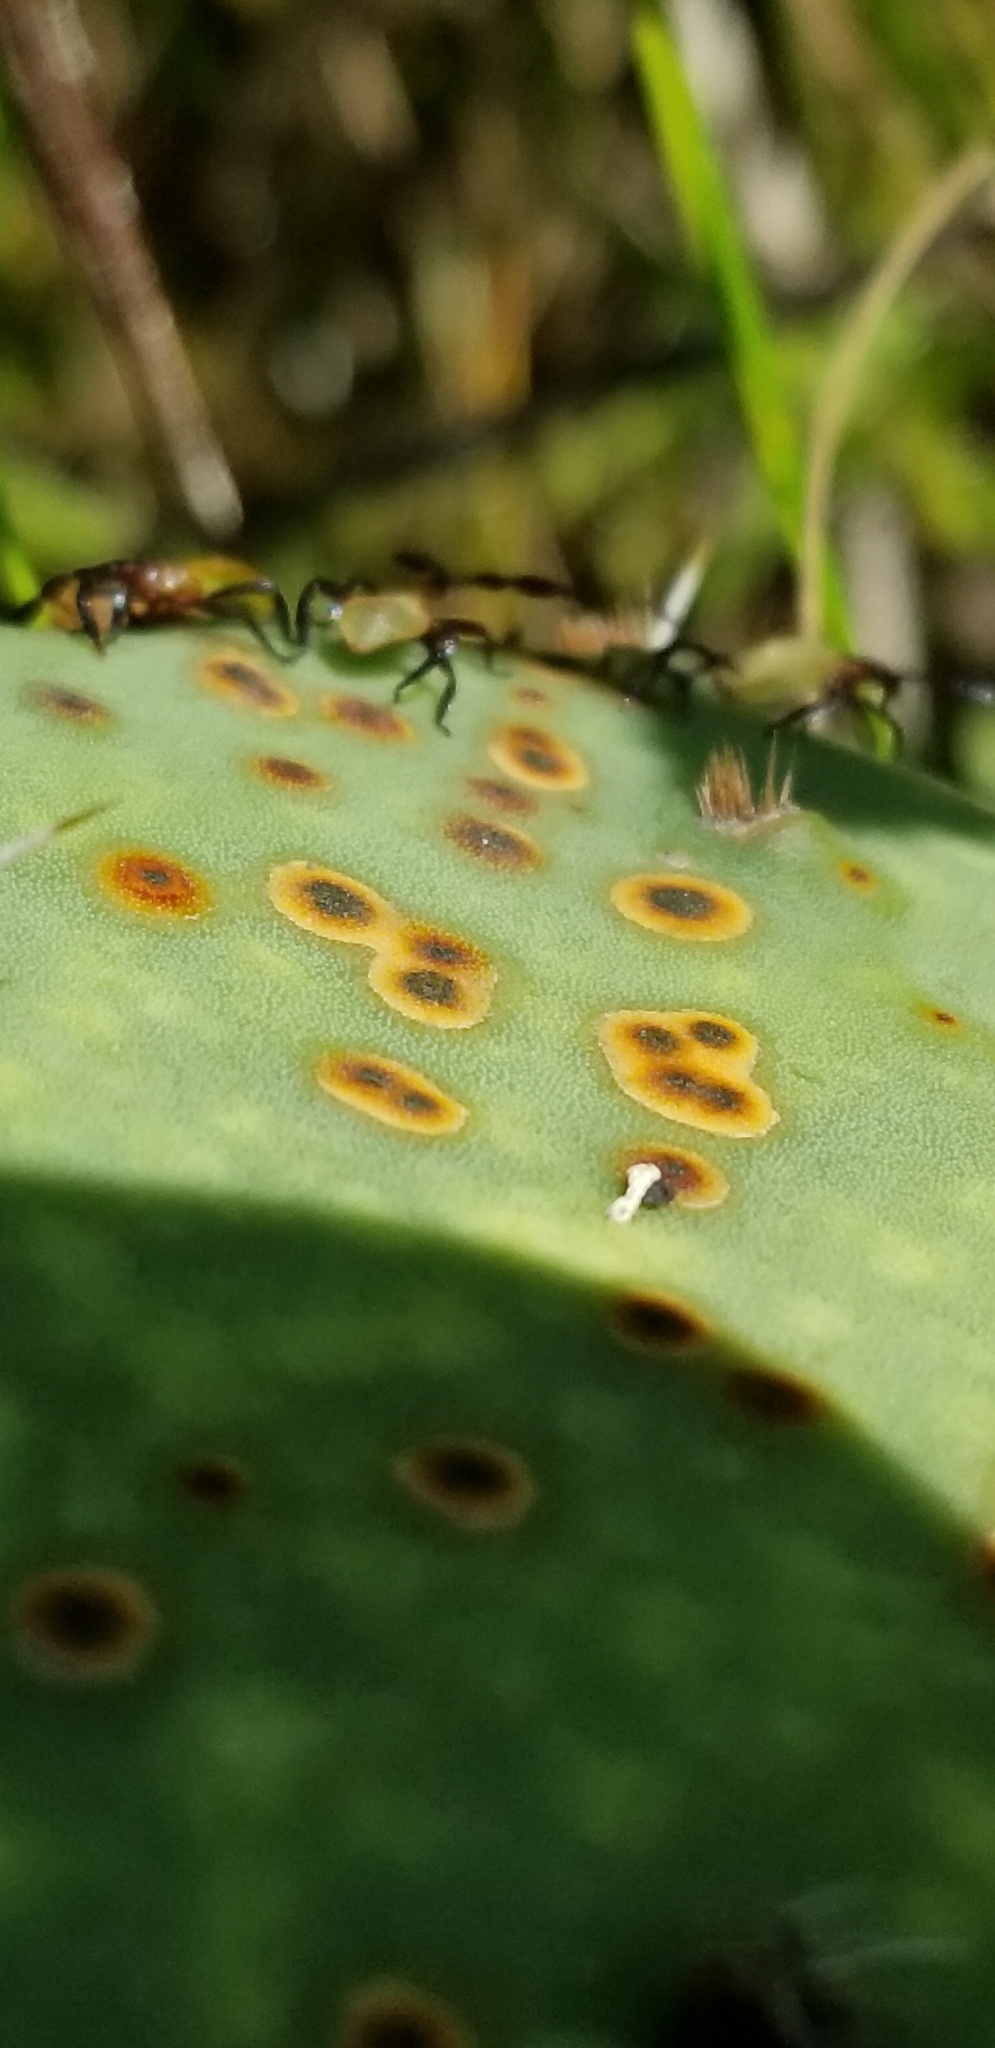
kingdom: Animalia
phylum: Arthropoda
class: Insecta
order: Hemiptera
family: Coreidae
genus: Chelinidea
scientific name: Chelinidea vittiger
